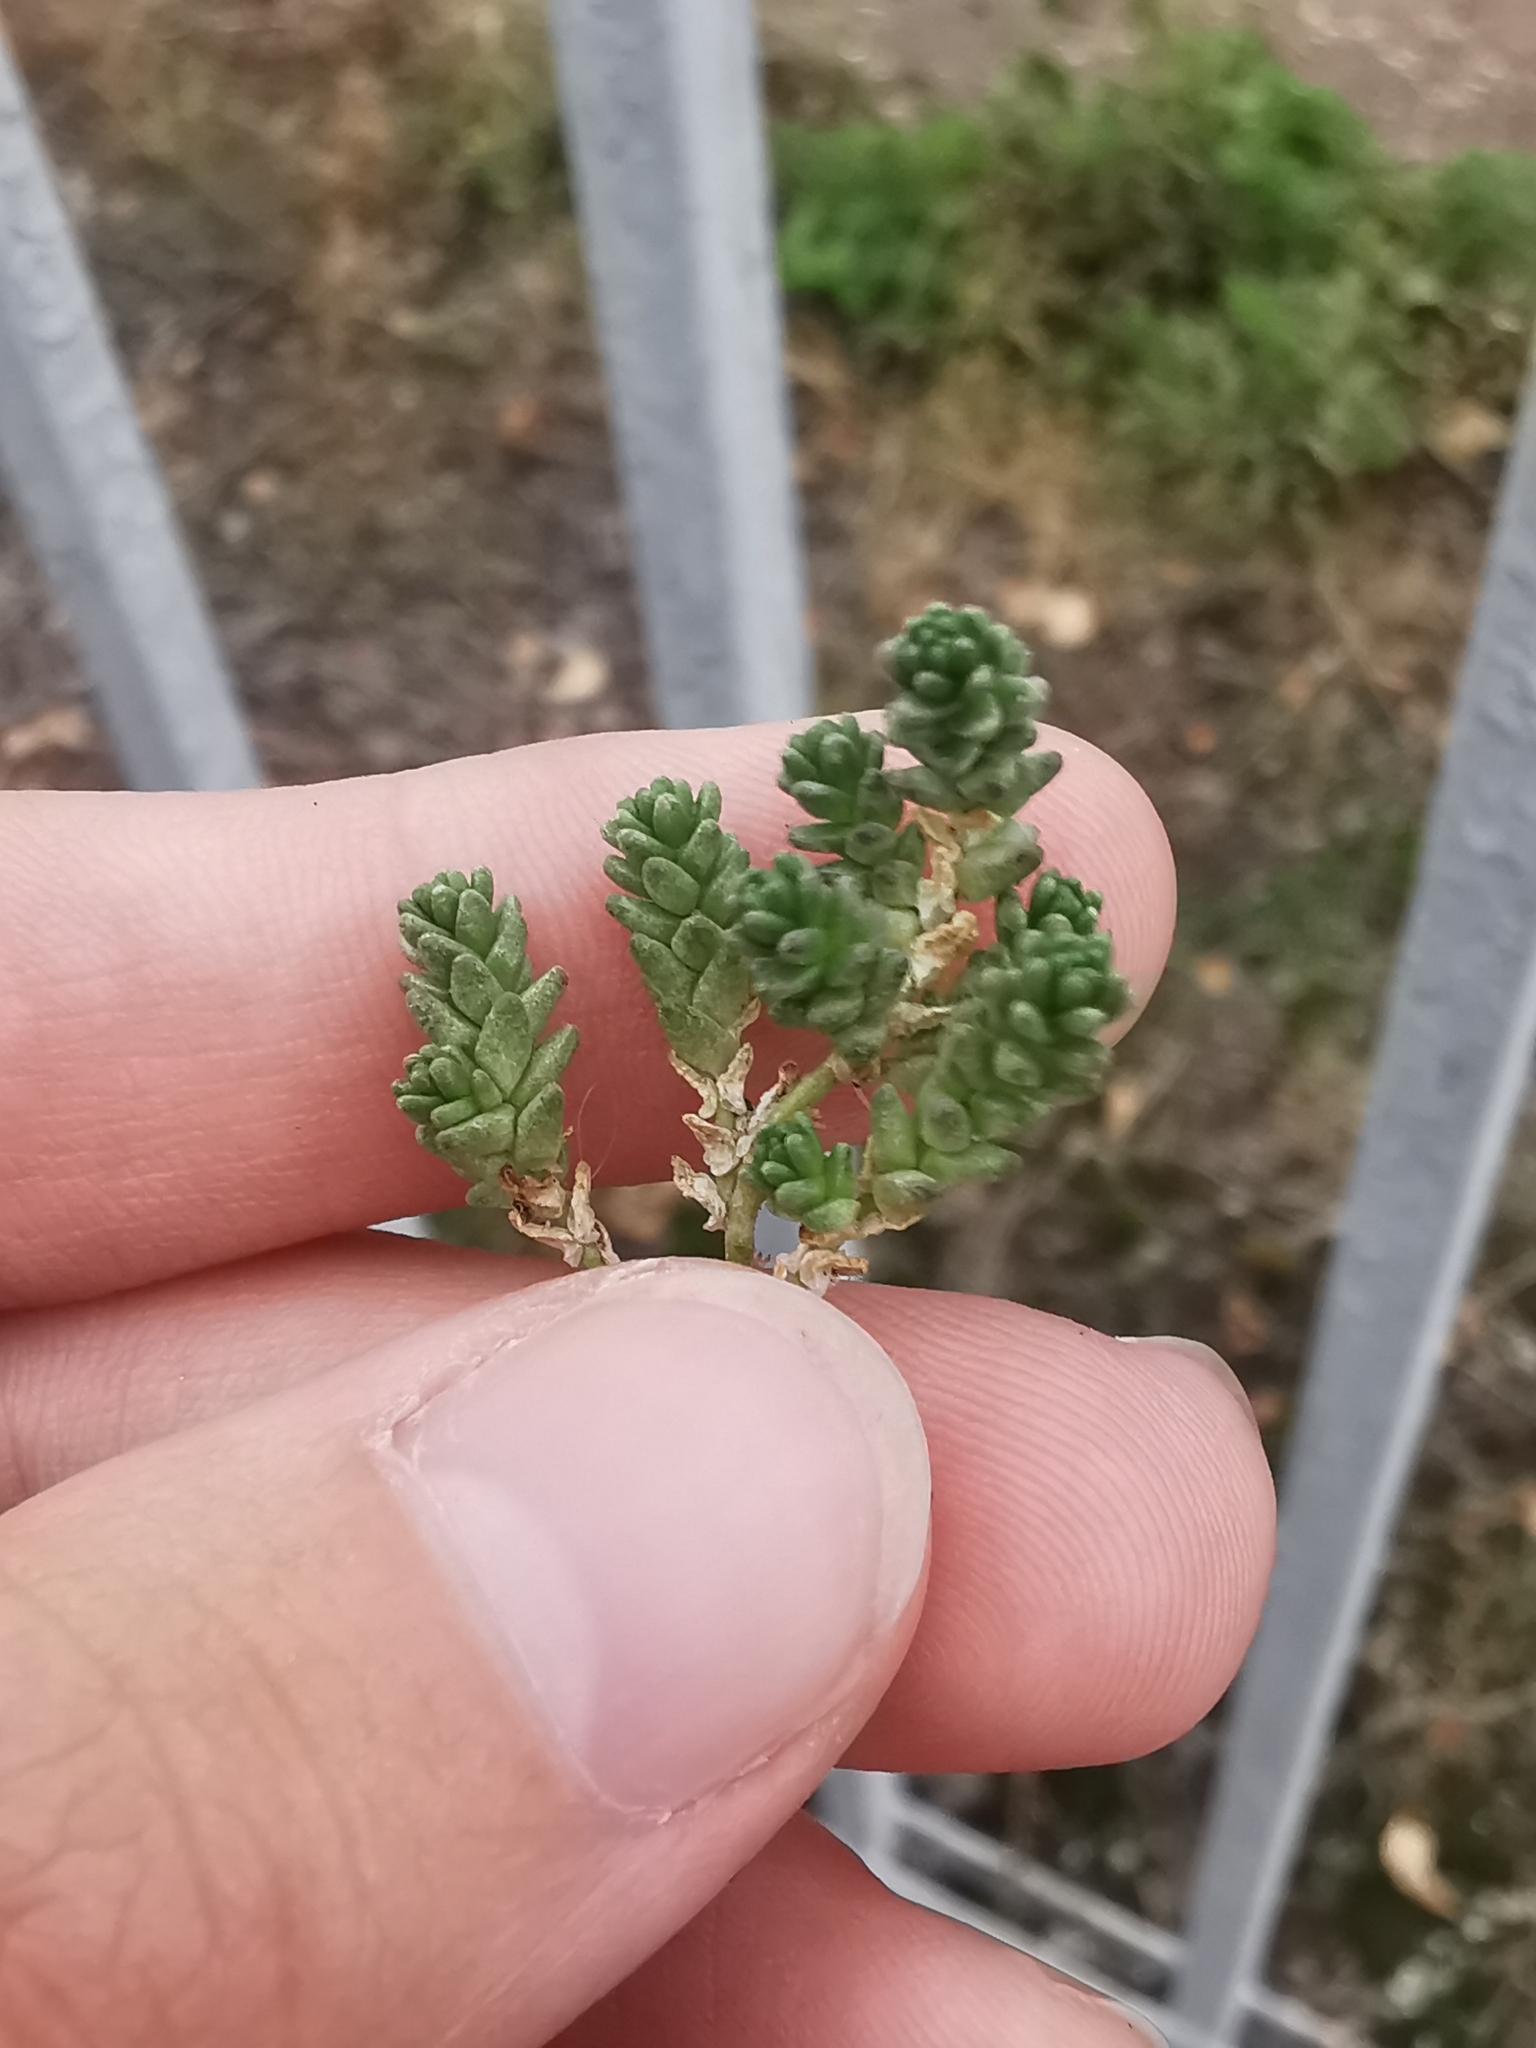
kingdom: Plantae
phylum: Tracheophyta
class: Magnoliopsida
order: Saxifragales
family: Crassulaceae
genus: Sedum
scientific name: Sedum acre
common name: Biting stonecrop
